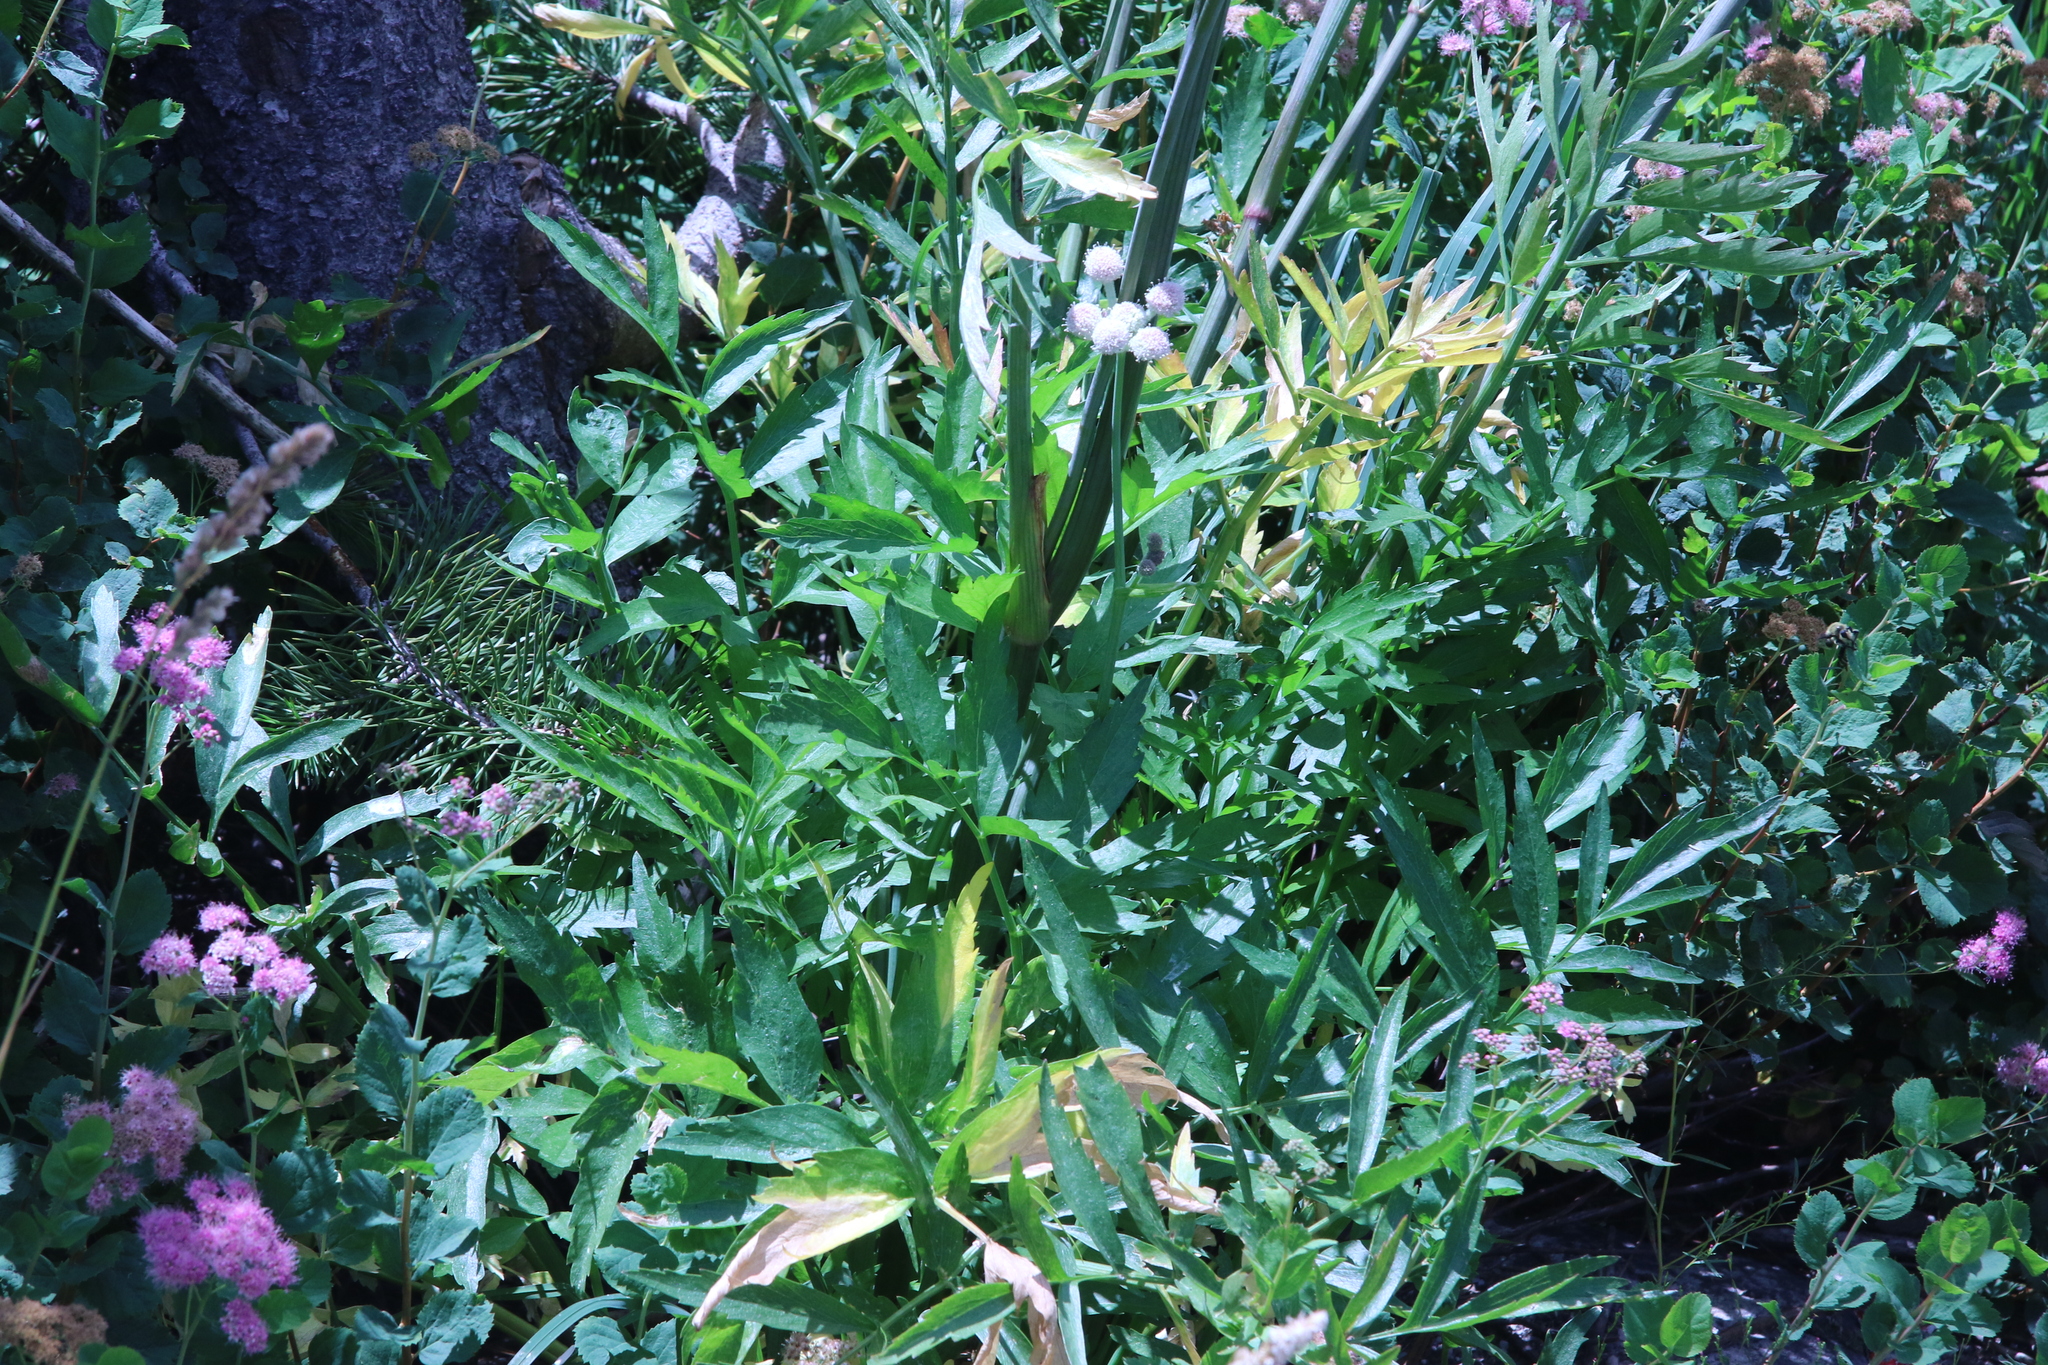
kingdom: Plantae
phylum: Tracheophyta
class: Magnoliopsida
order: Apiales
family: Apiaceae
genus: Angelica
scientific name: Angelica capitellata
